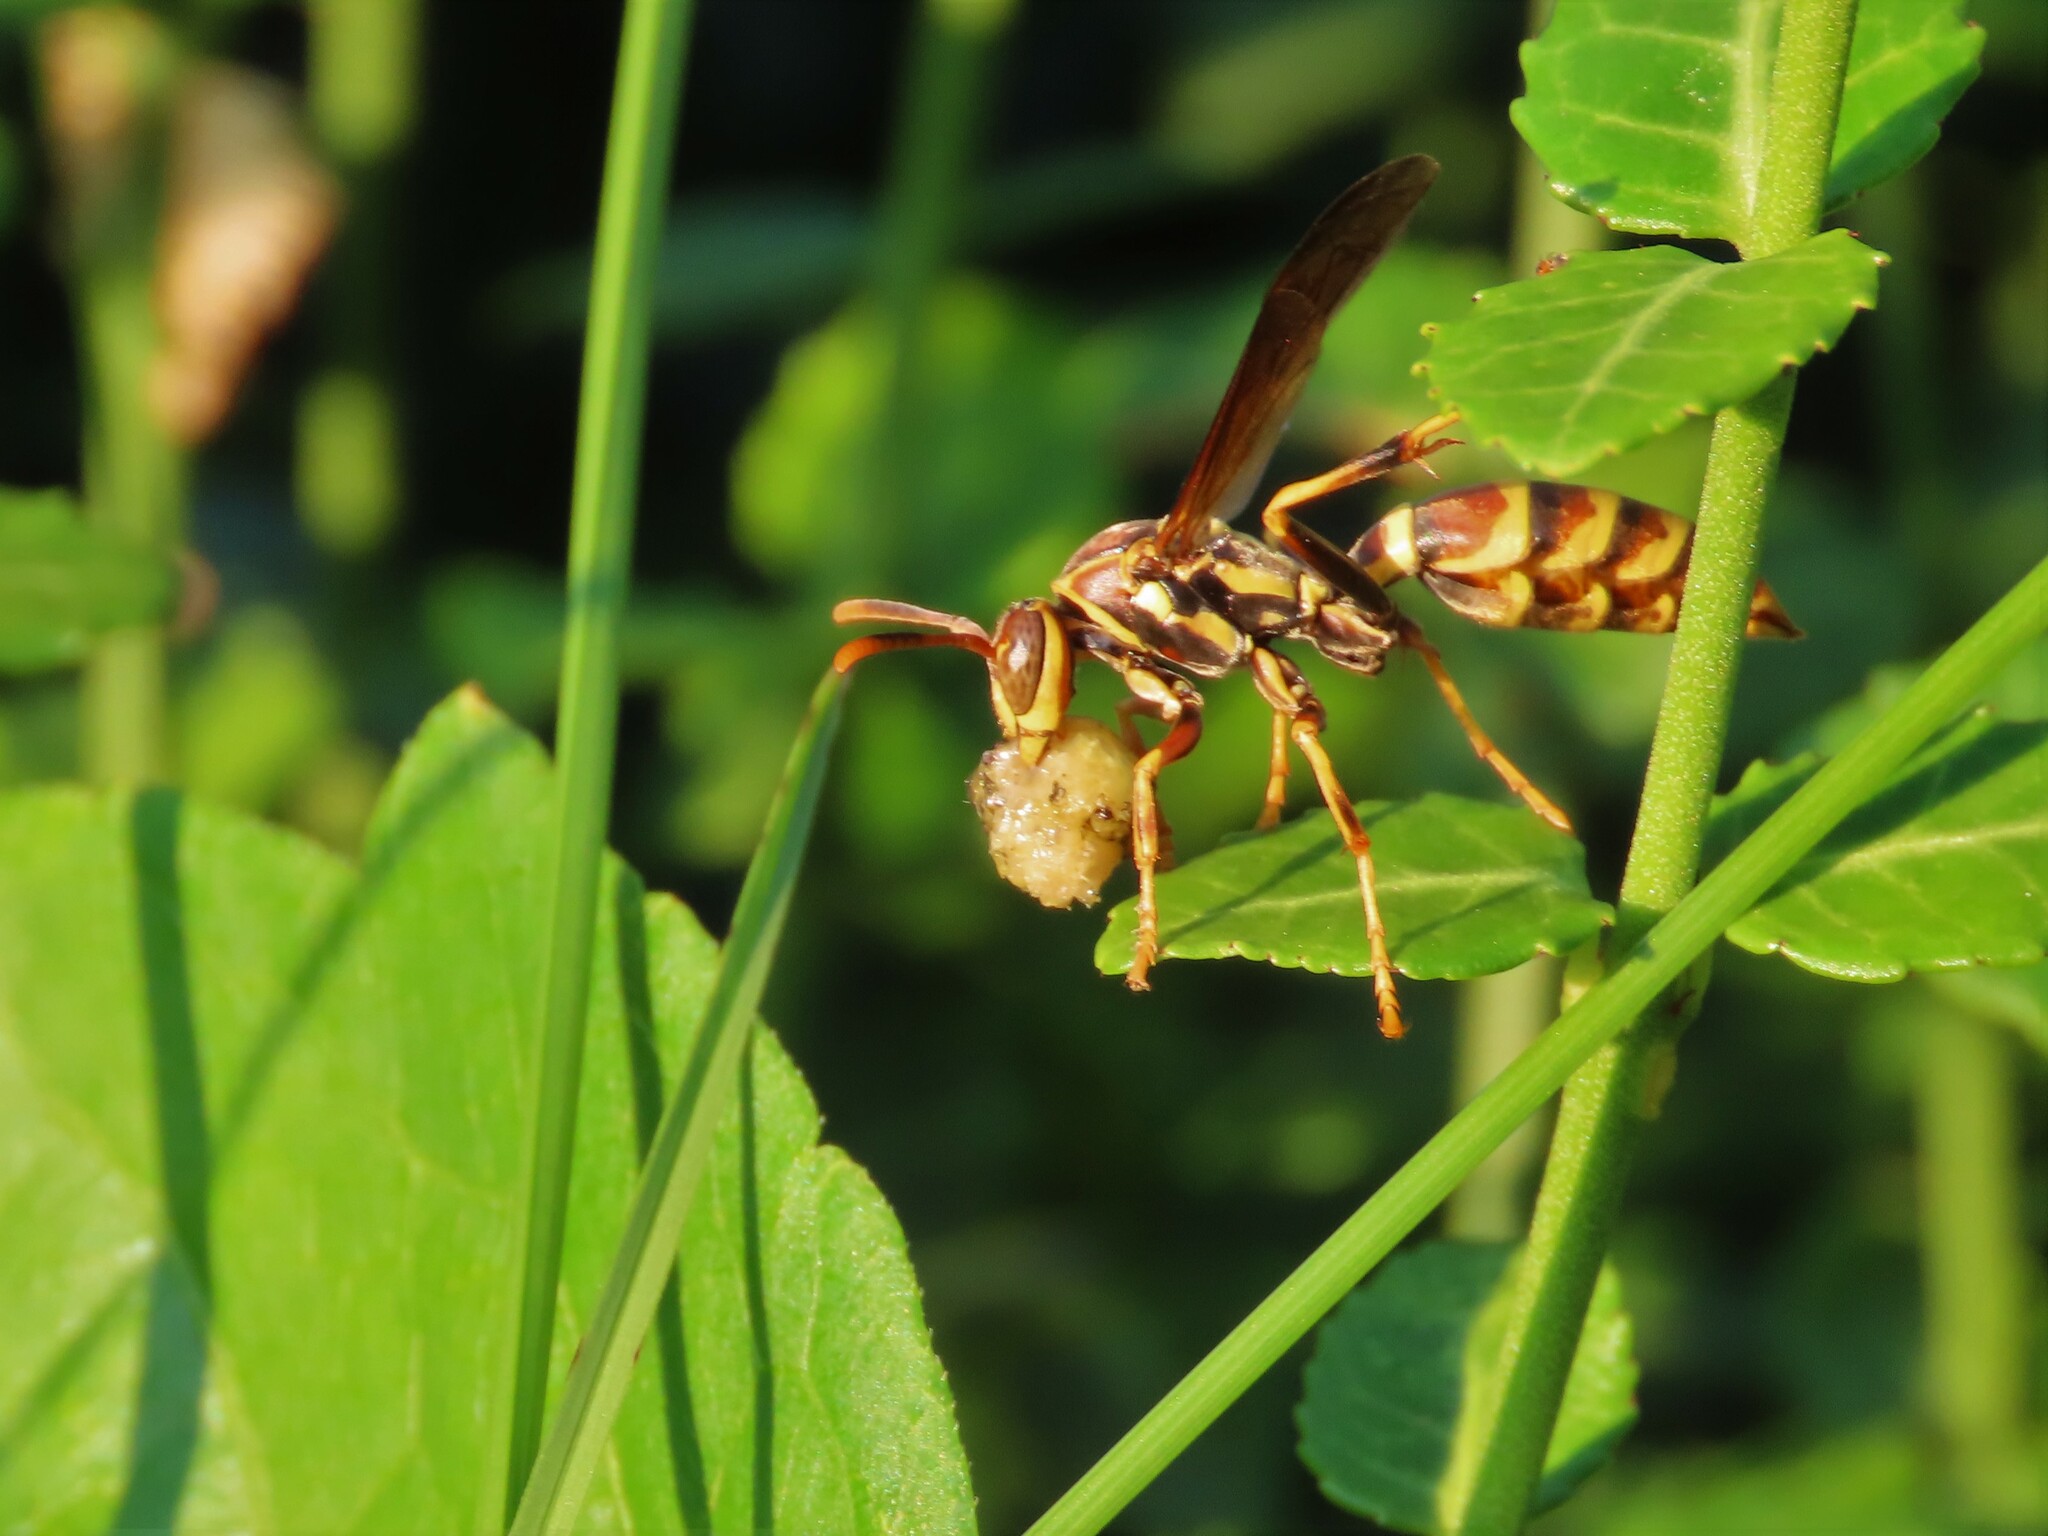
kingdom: Animalia
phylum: Arthropoda
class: Insecta
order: Hymenoptera
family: Eumenidae
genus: Polistes
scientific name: Polistes exclamans
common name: Paper wasp
